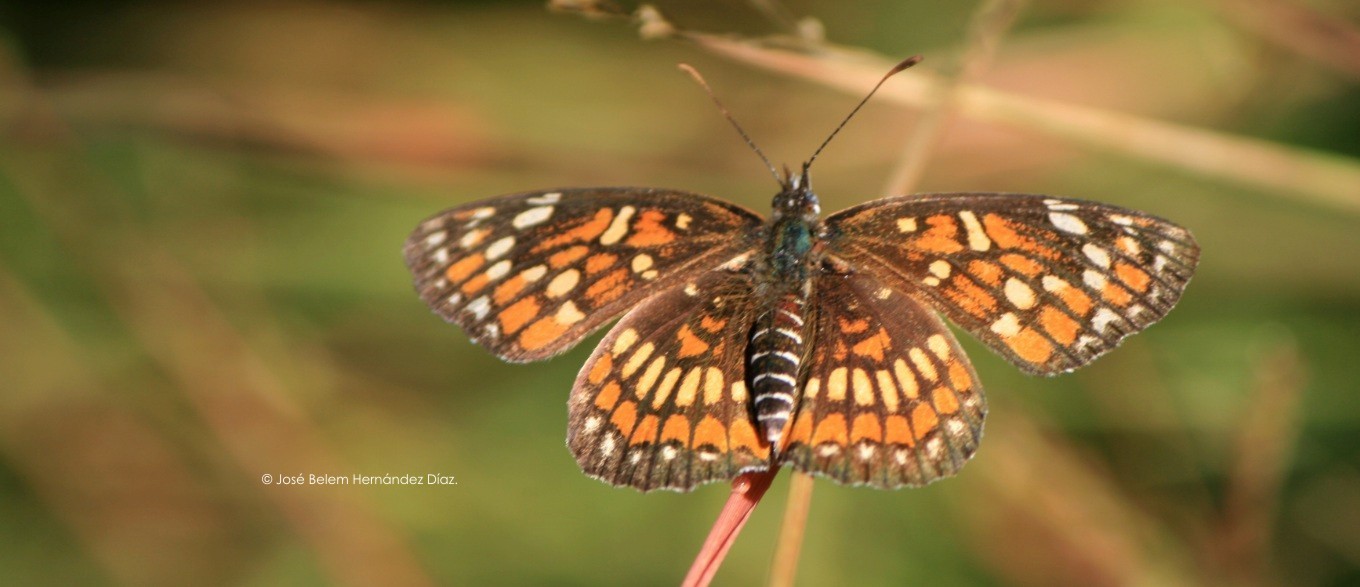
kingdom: Animalia
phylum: Arthropoda
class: Insecta
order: Lepidoptera
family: Nymphalidae
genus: Thessalia
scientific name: Thessalia theona
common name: Nymphalid moth
